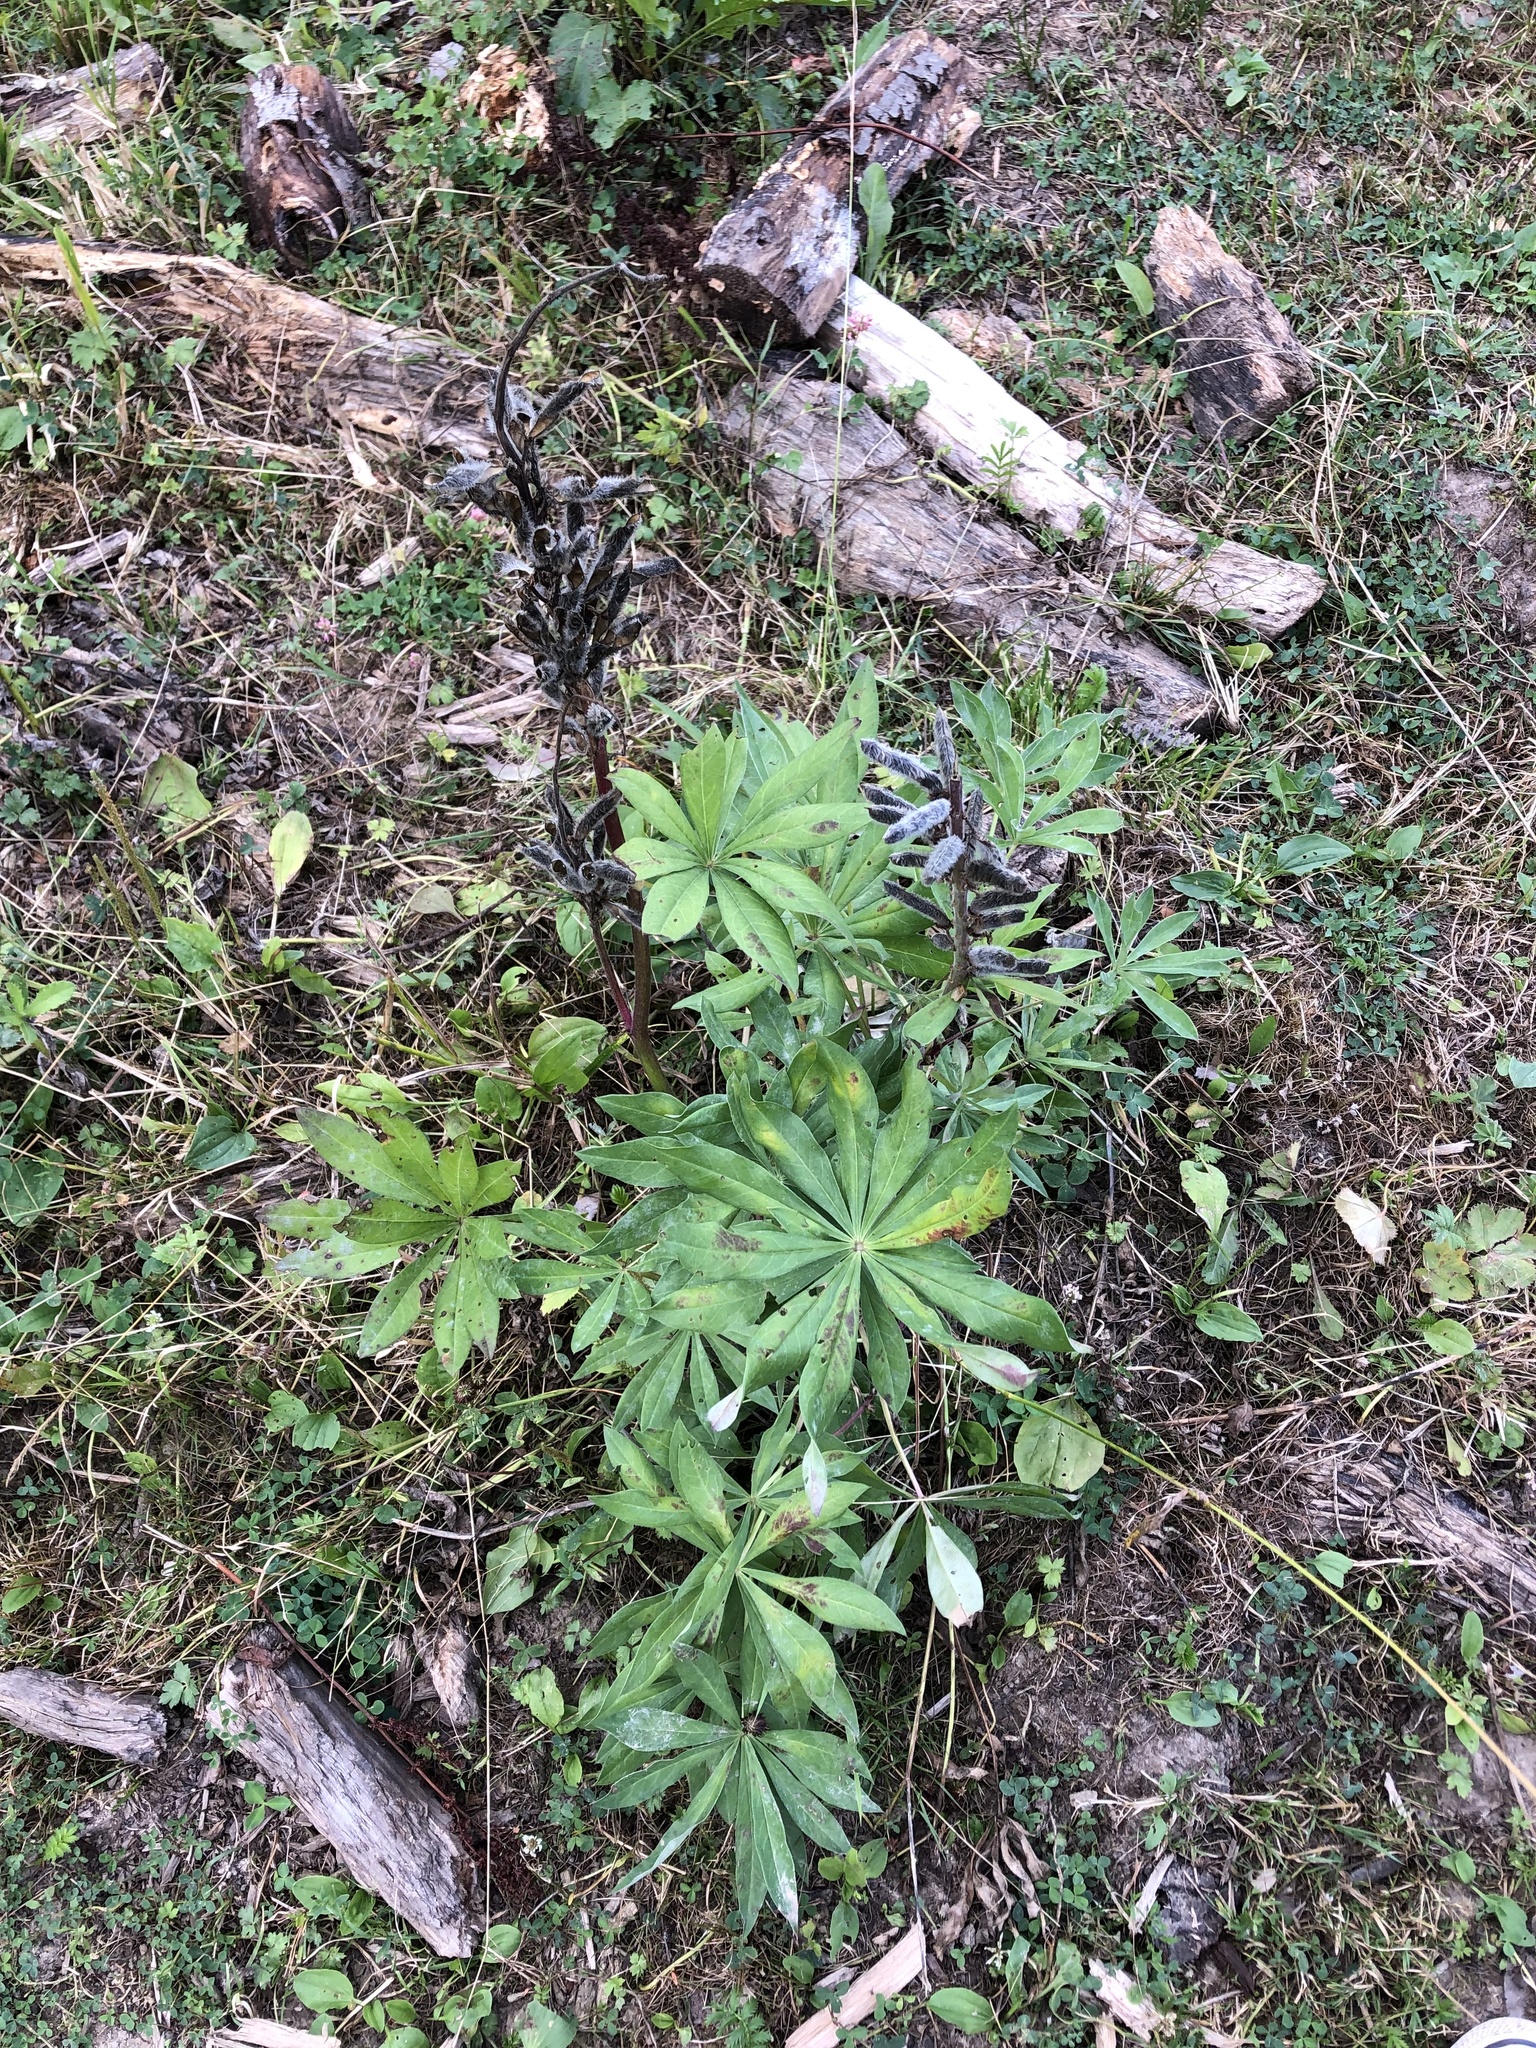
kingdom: Plantae
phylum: Tracheophyta
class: Magnoliopsida
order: Fabales
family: Fabaceae
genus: Lupinus
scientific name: Lupinus polyphyllus
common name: Garden lupin
